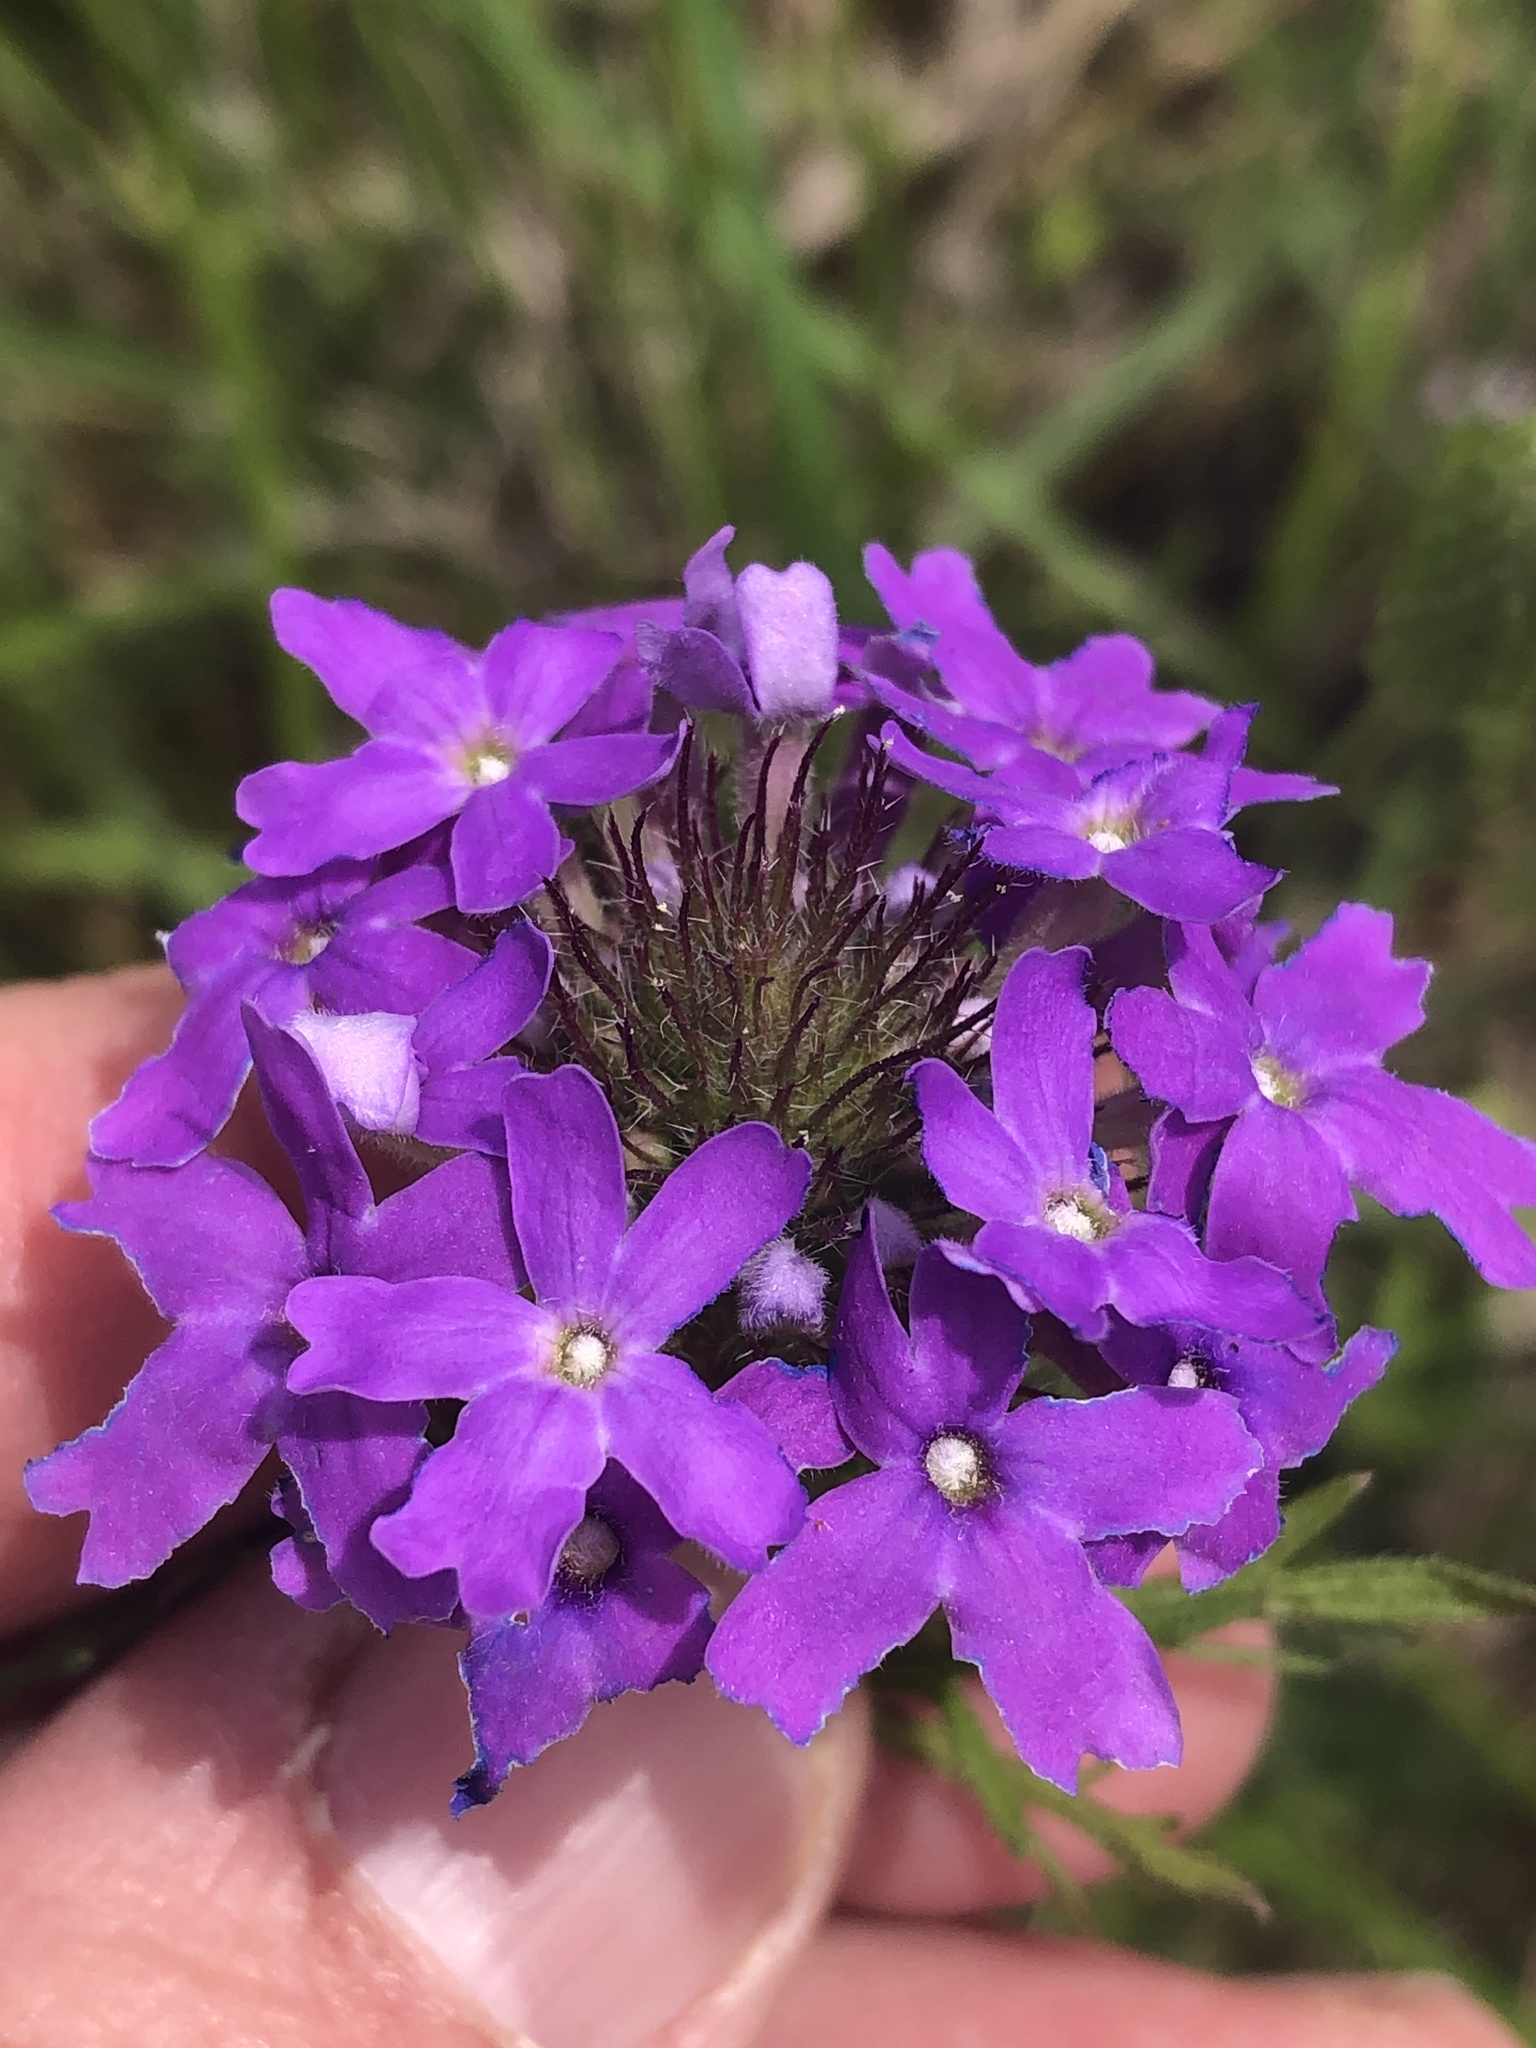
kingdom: Plantae
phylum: Tracheophyta
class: Magnoliopsida
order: Lamiales
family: Verbenaceae
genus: Verbena
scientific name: Verbena bipinnatifida
